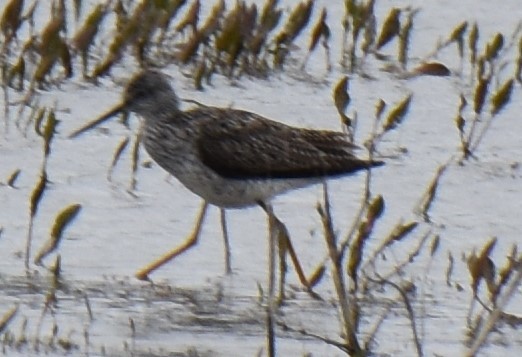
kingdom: Animalia
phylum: Chordata
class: Aves
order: Charadriiformes
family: Scolopacidae
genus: Tringa
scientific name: Tringa melanoleuca
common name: Greater yellowlegs
